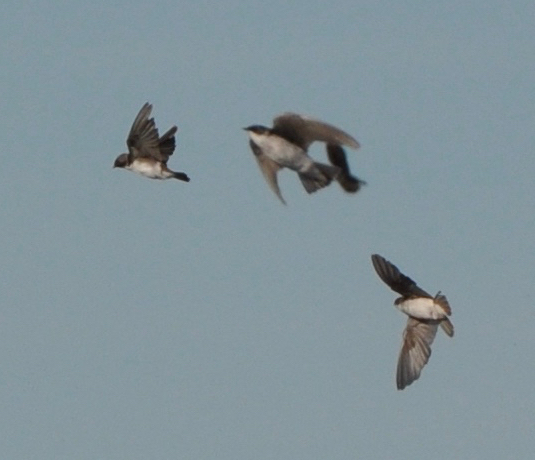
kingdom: Animalia
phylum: Chordata
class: Aves
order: Passeriformes
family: Hirundinidae
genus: Tachycineta
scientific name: Tachycineta bicolor
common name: Tree swallow
